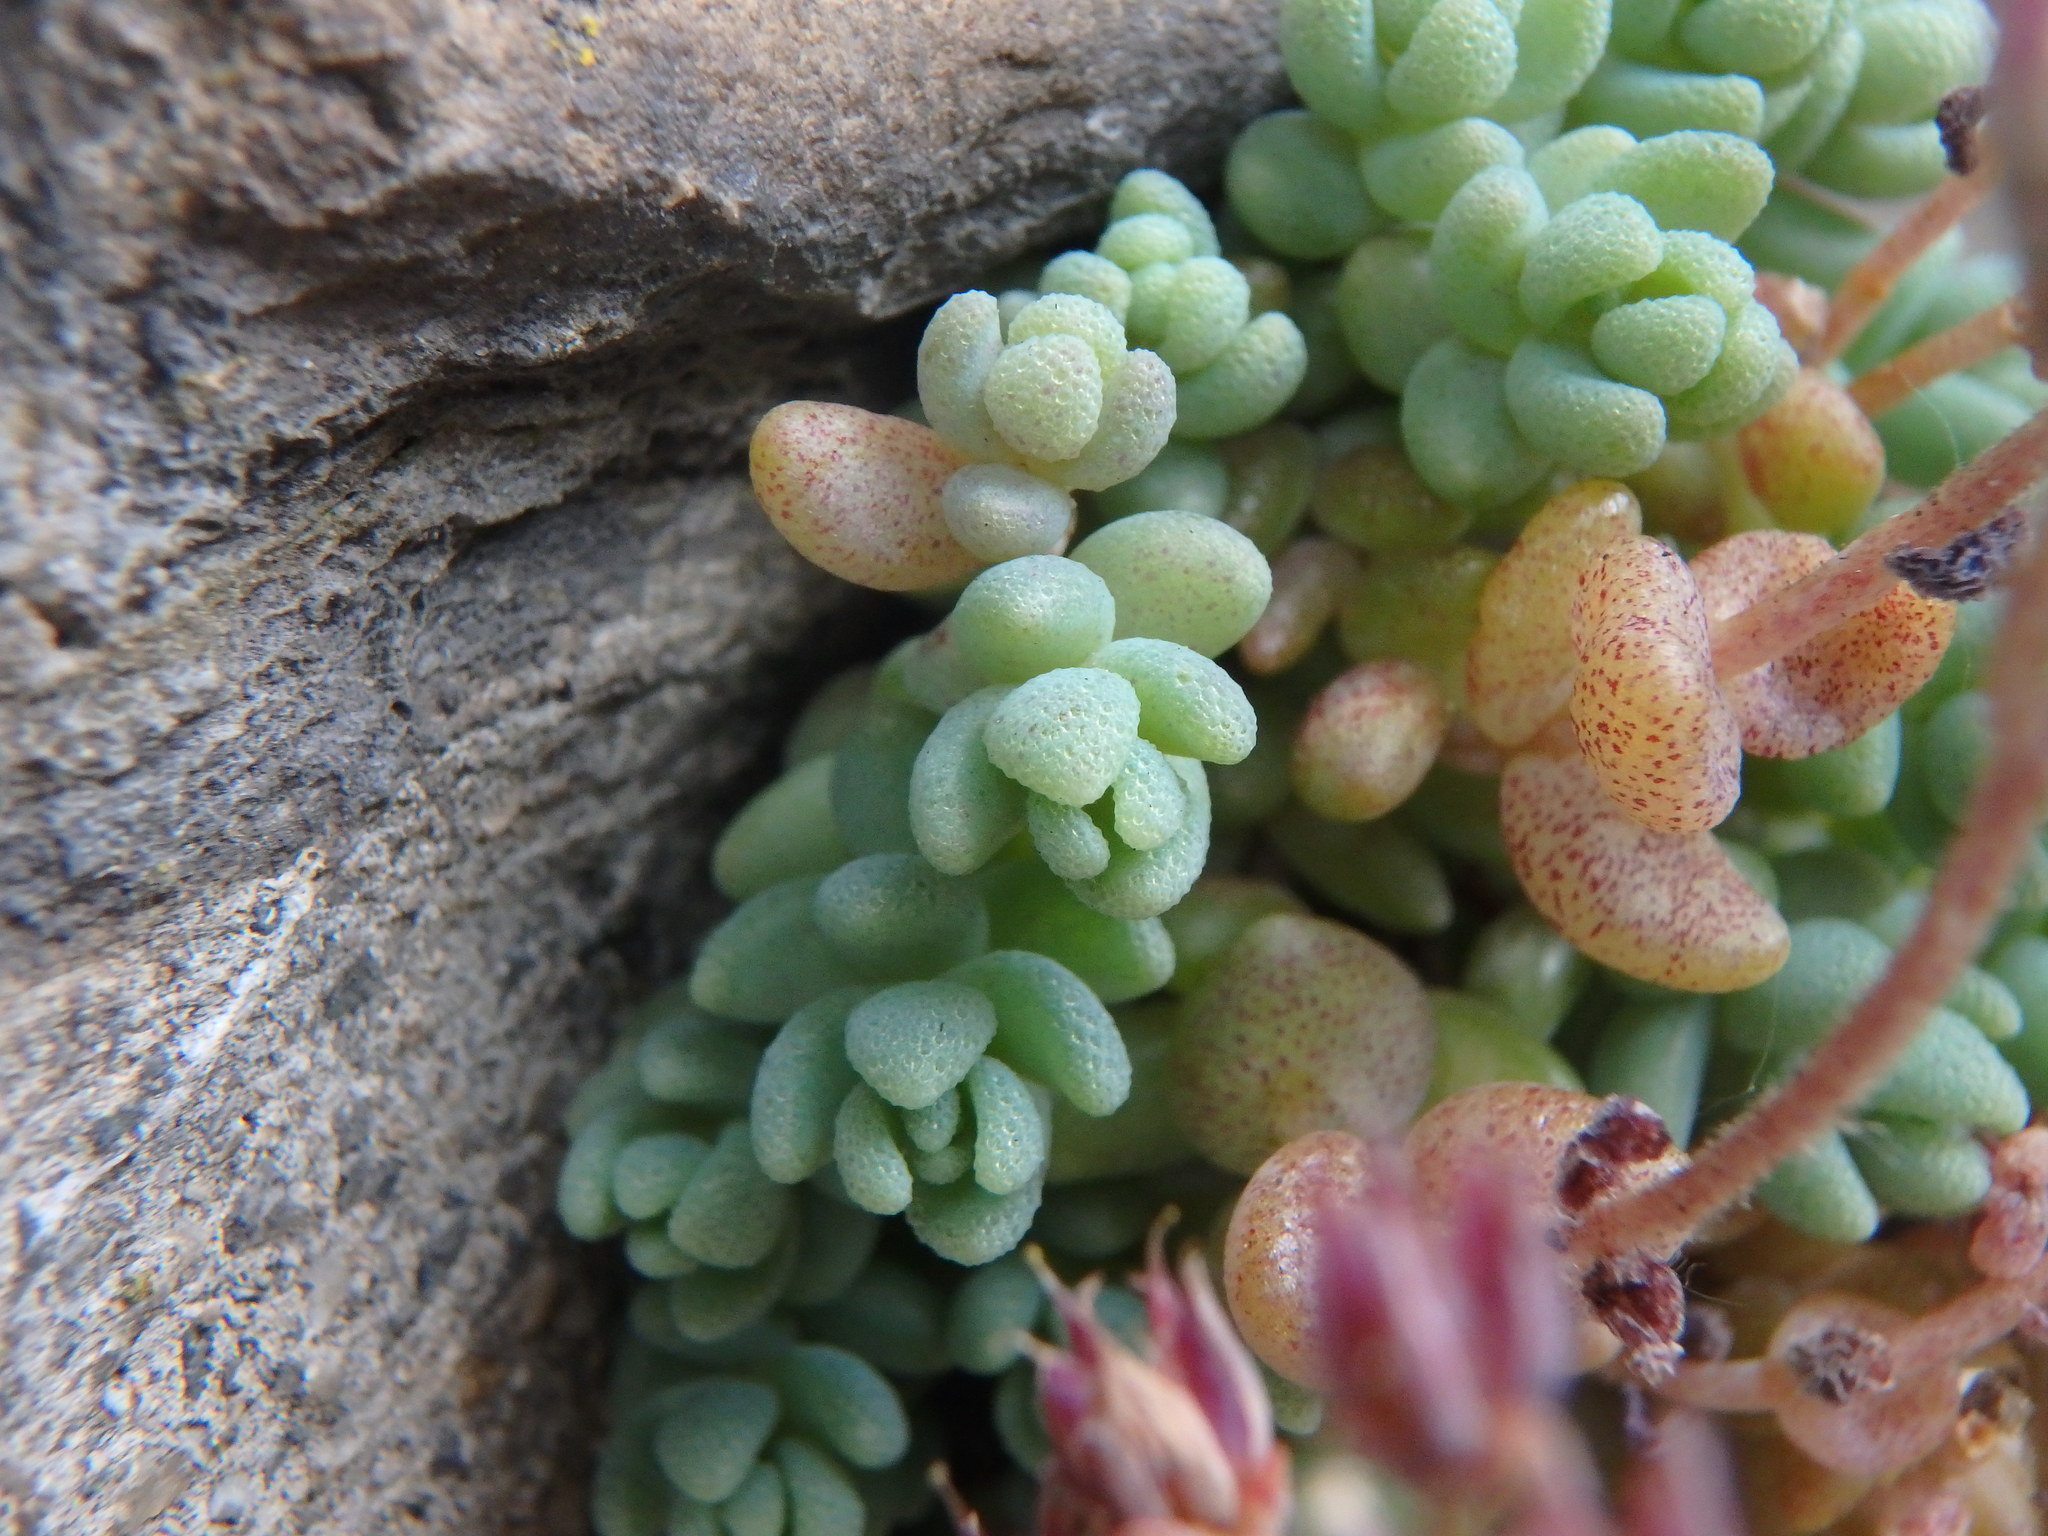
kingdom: Plantae
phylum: Tracheophyta
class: Magnoliopsida
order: Saxifragales
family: Crassulaceae
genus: Sedum
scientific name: Sedum dasyphyllum
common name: Thick-leaf stonecrop
